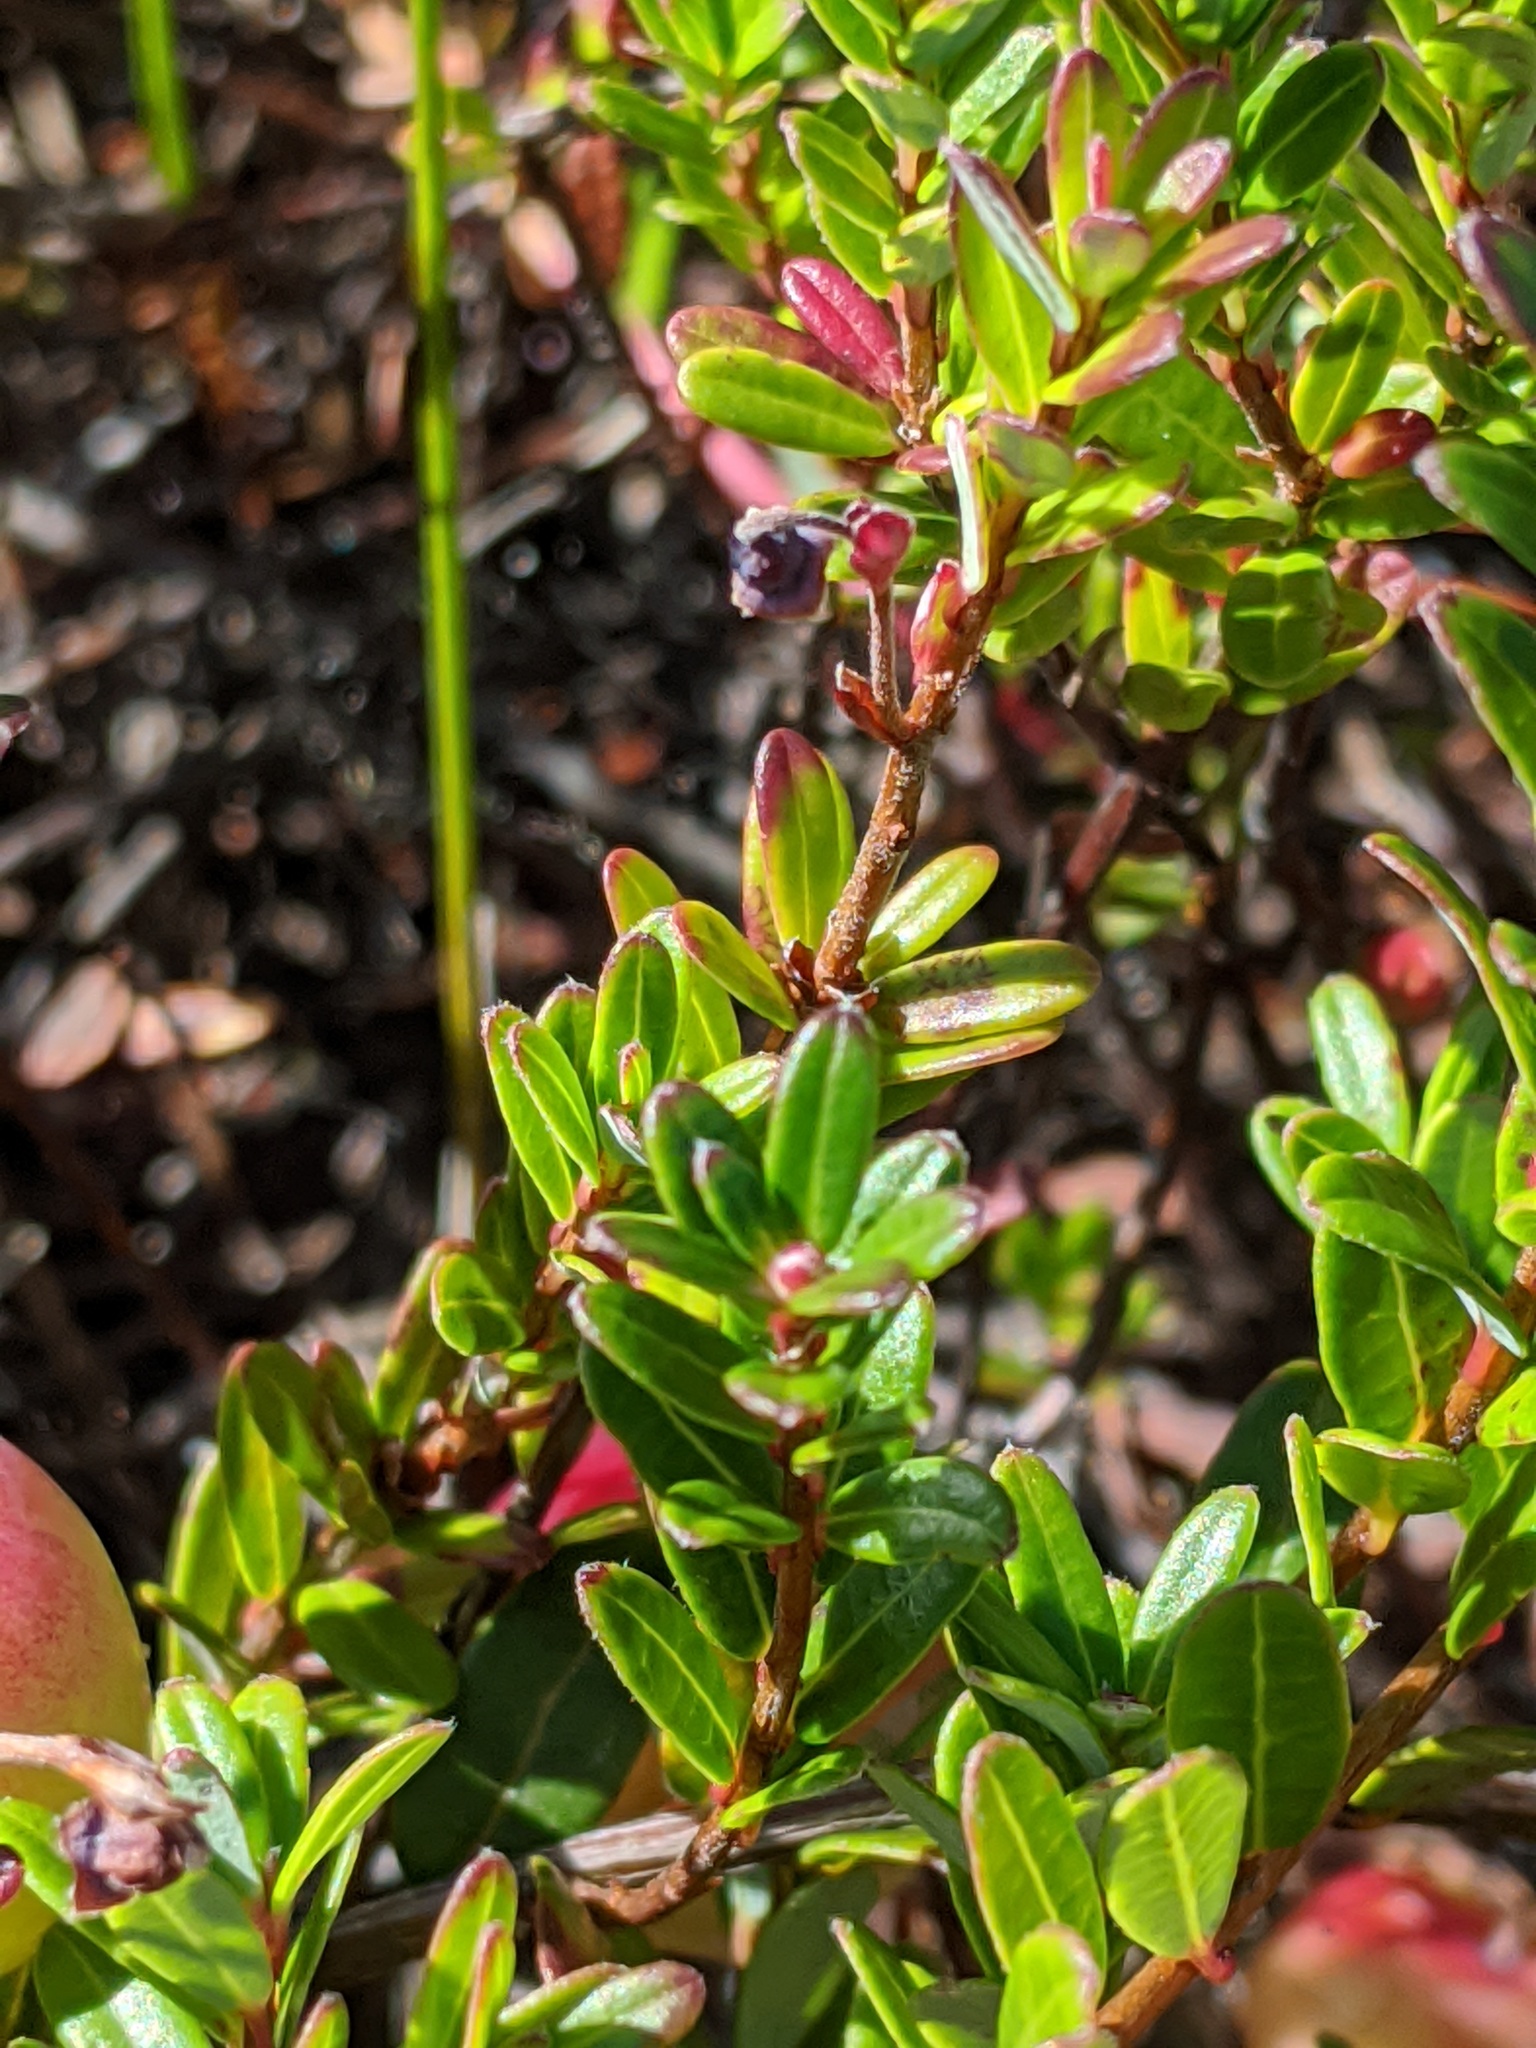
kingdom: Plantae
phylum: Tracheophyta
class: Magnoliopsida
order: Ericales
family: Ericaceae
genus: Vaccinium
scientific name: Vaccinium macrocarpon
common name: American cranberry
